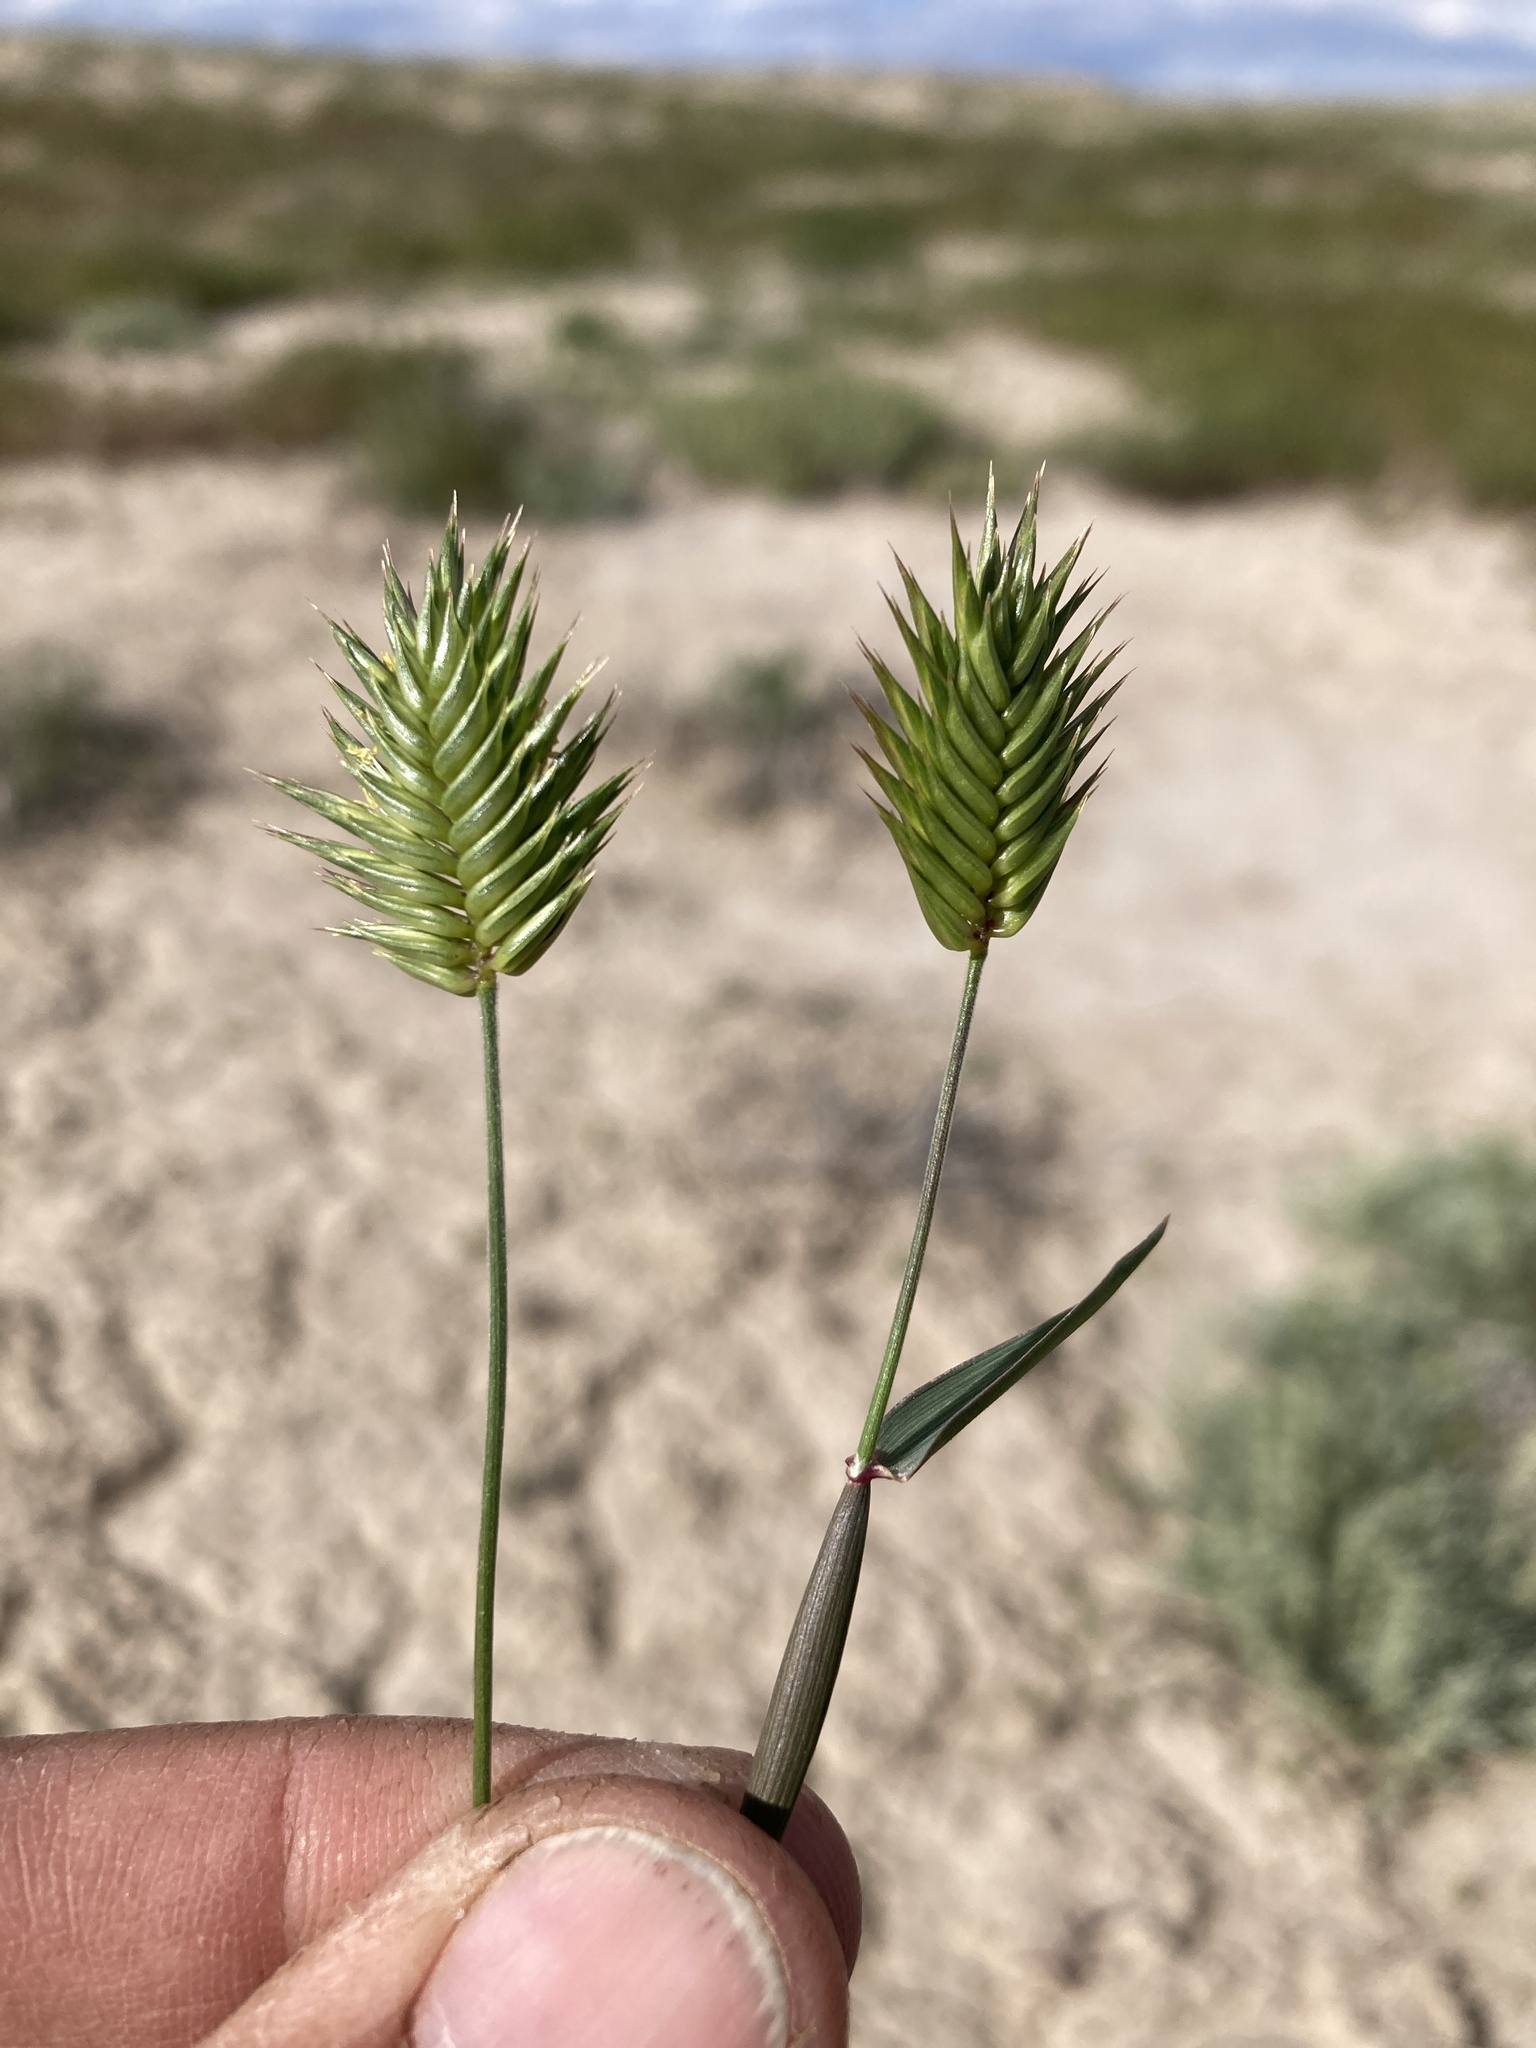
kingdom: Plantae
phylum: Tracheophyta
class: Liliopsida
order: Poales
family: Poaceae
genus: Eremopyrum
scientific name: Eremopyrum triticeum
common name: Annual wheatgrass
